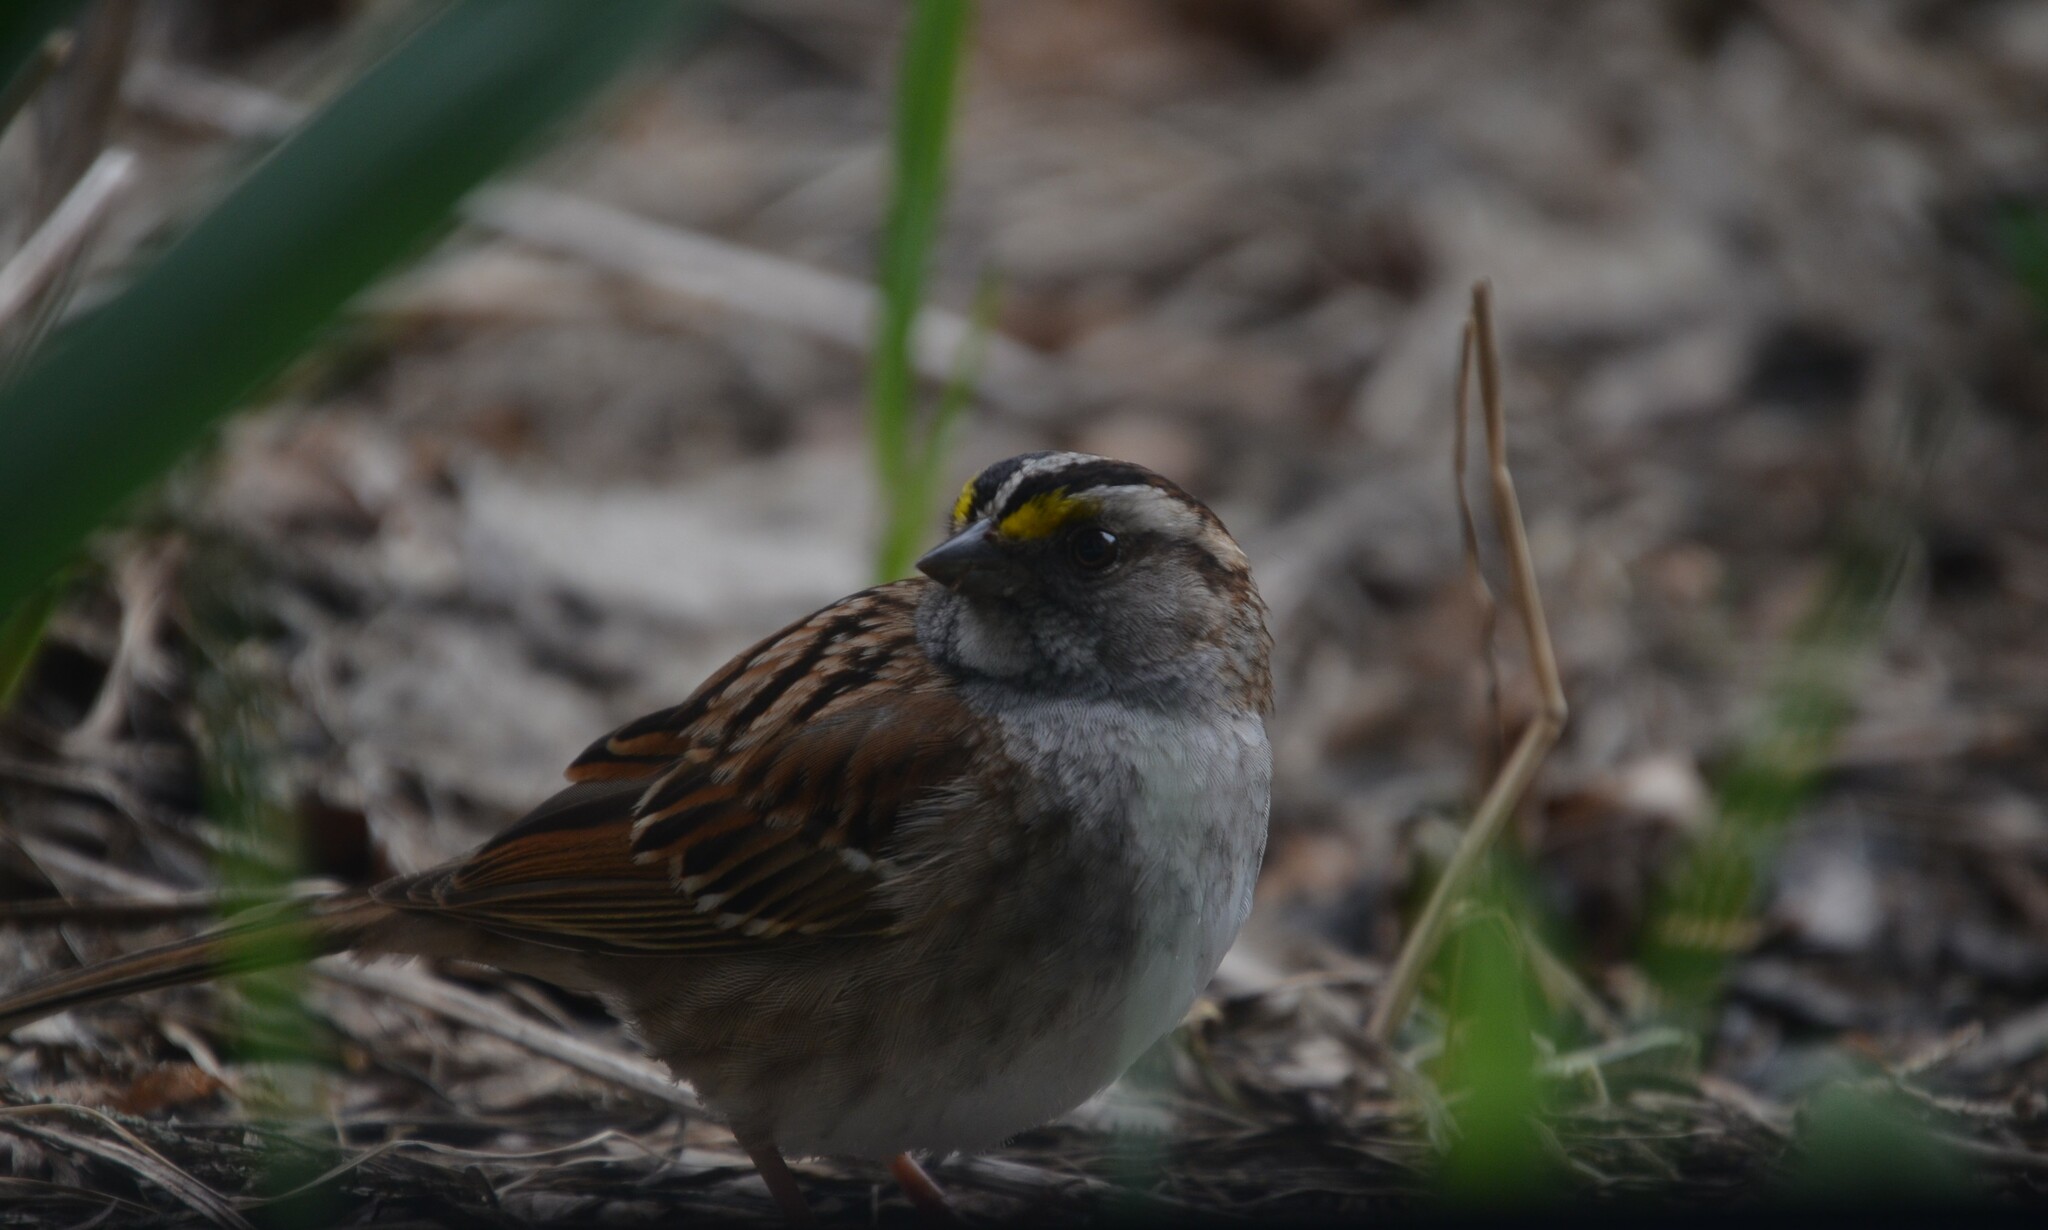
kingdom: Animalia
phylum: Chordata
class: Aves
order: Passeriformes
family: Passerellidae
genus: Zonotrichia
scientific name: Zonotrichia albicollis
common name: White-throated sparrow
